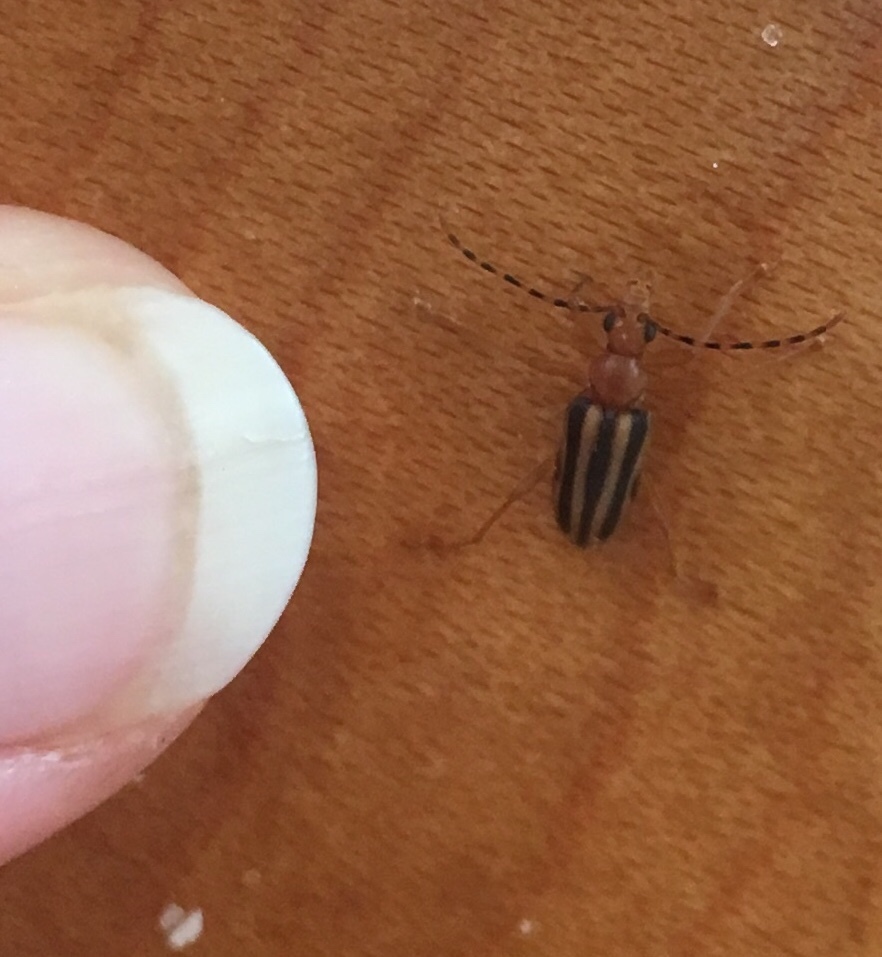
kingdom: Animalia
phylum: Arthropoda
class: Insecta
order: Coleoptera
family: Cerambycidae
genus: Metacmaeops
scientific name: Metacmaeops vittata
